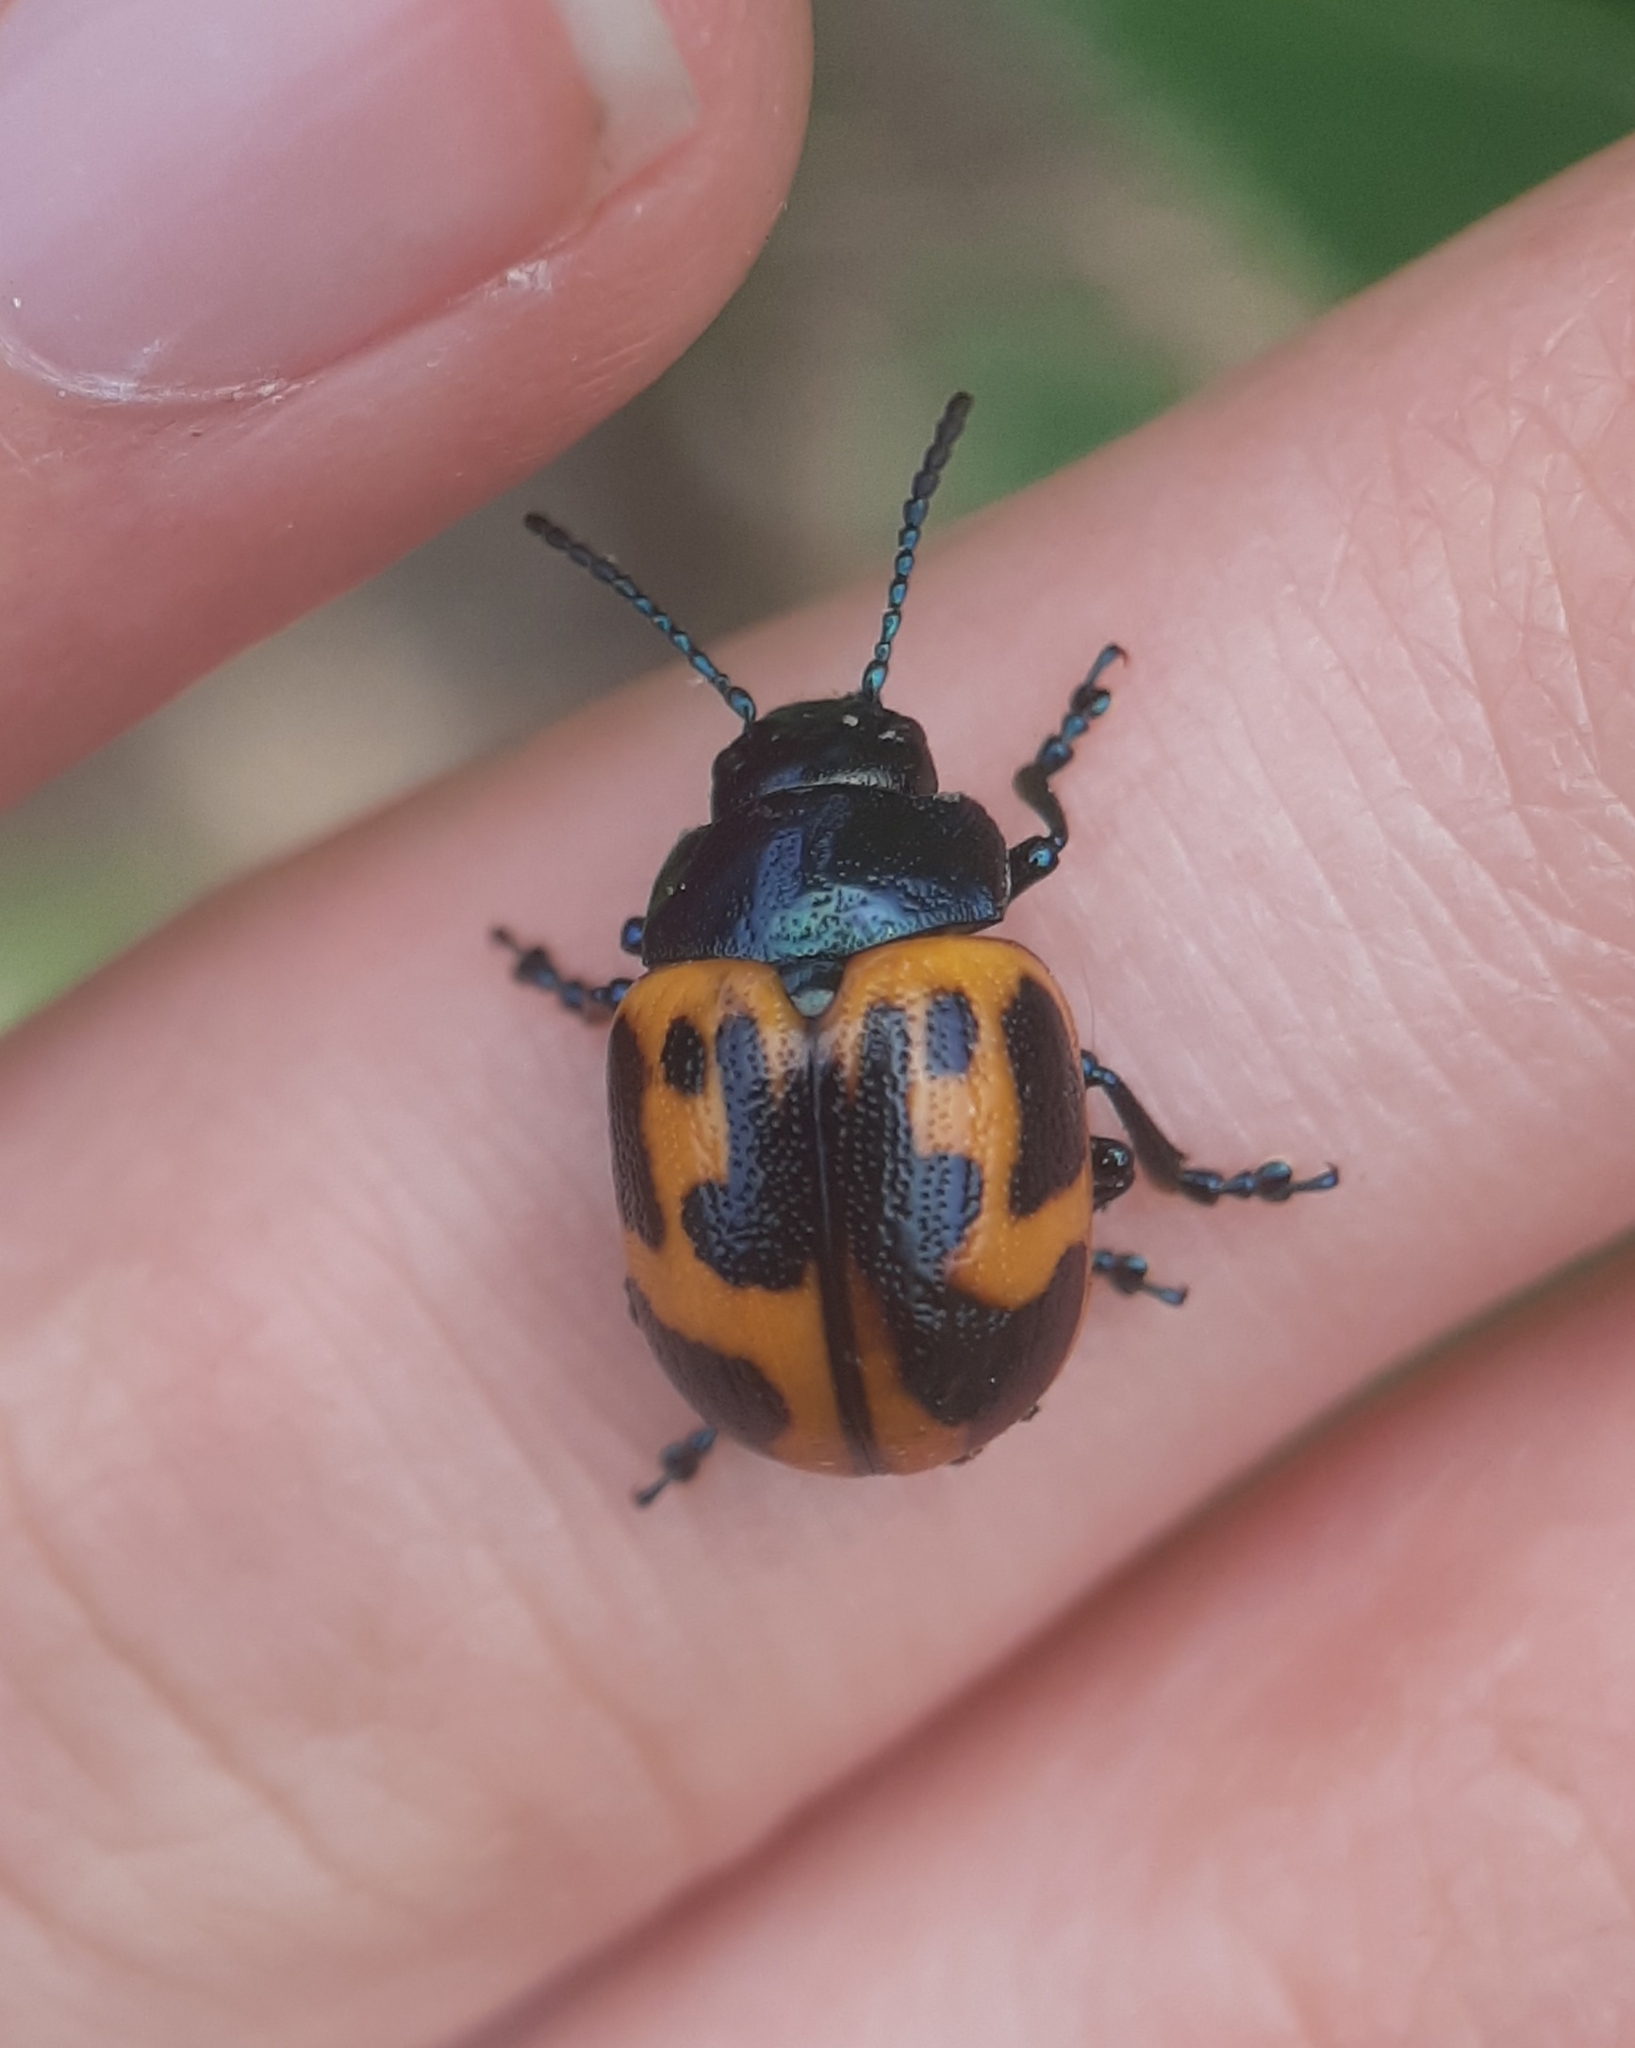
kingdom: Animalia
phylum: Arthropoda
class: Insecta
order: Coleoptera
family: Chrysomelidae
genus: Labidomera
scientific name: Labidomera clivicollis
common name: Swamp milkweed leaf beetle
